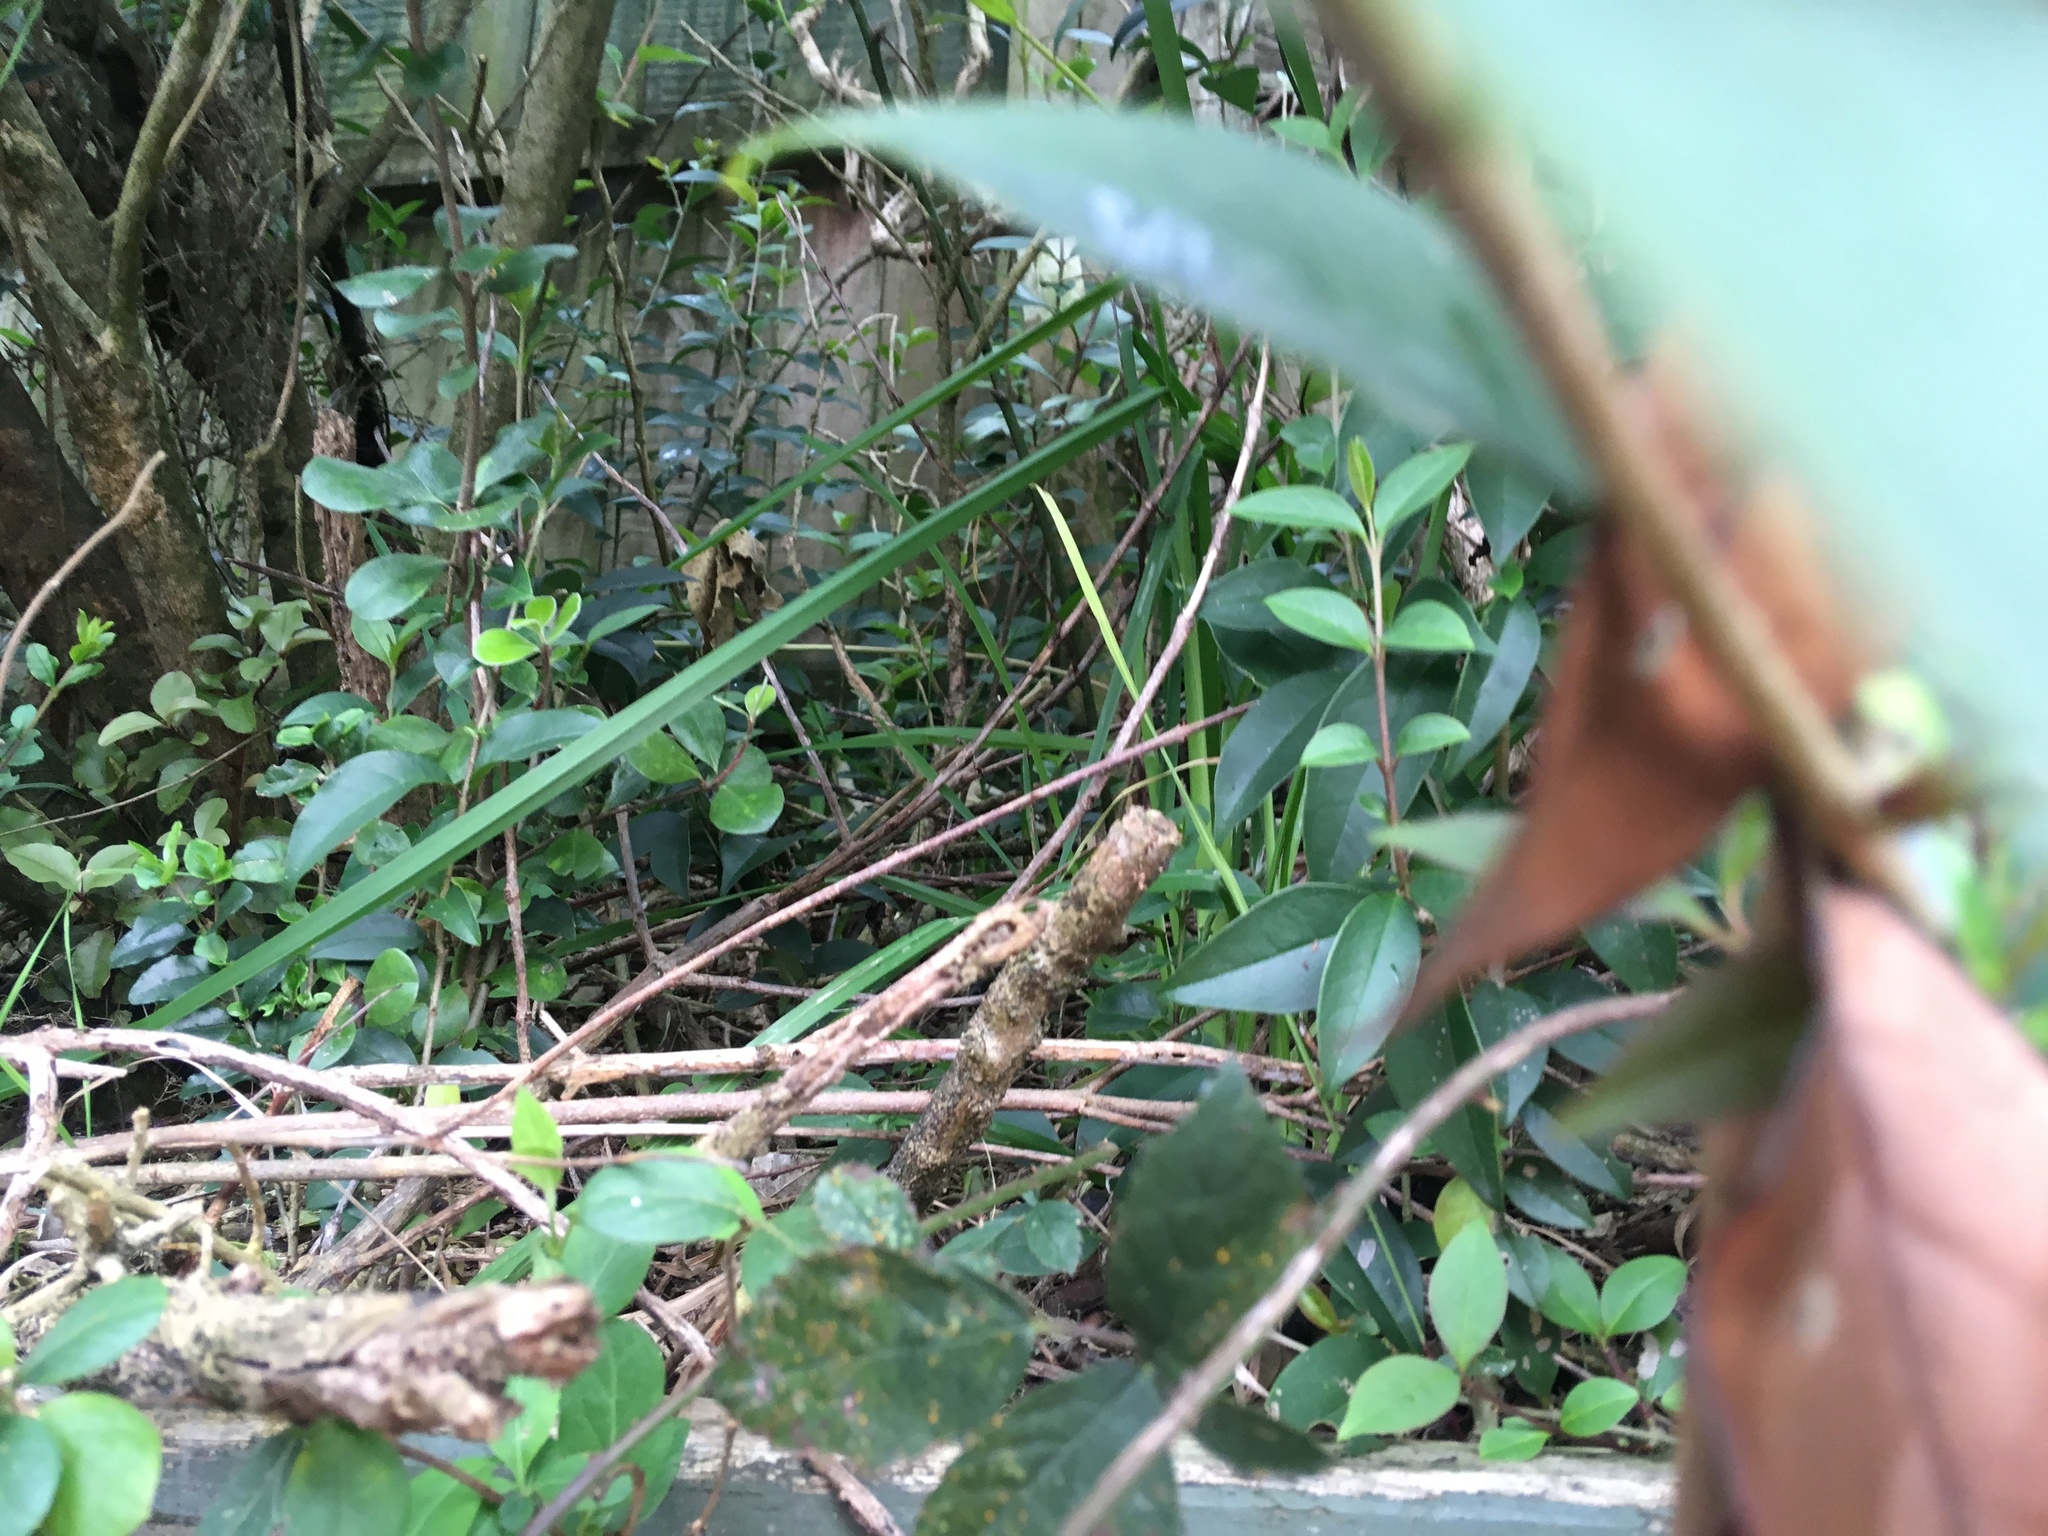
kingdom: Plantae
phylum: Tracheophyta
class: Magnoliopsida
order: Lamiales
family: Oleaceae
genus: Ligustrum
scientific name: Ligustrum lucidum
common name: Glossy privet
